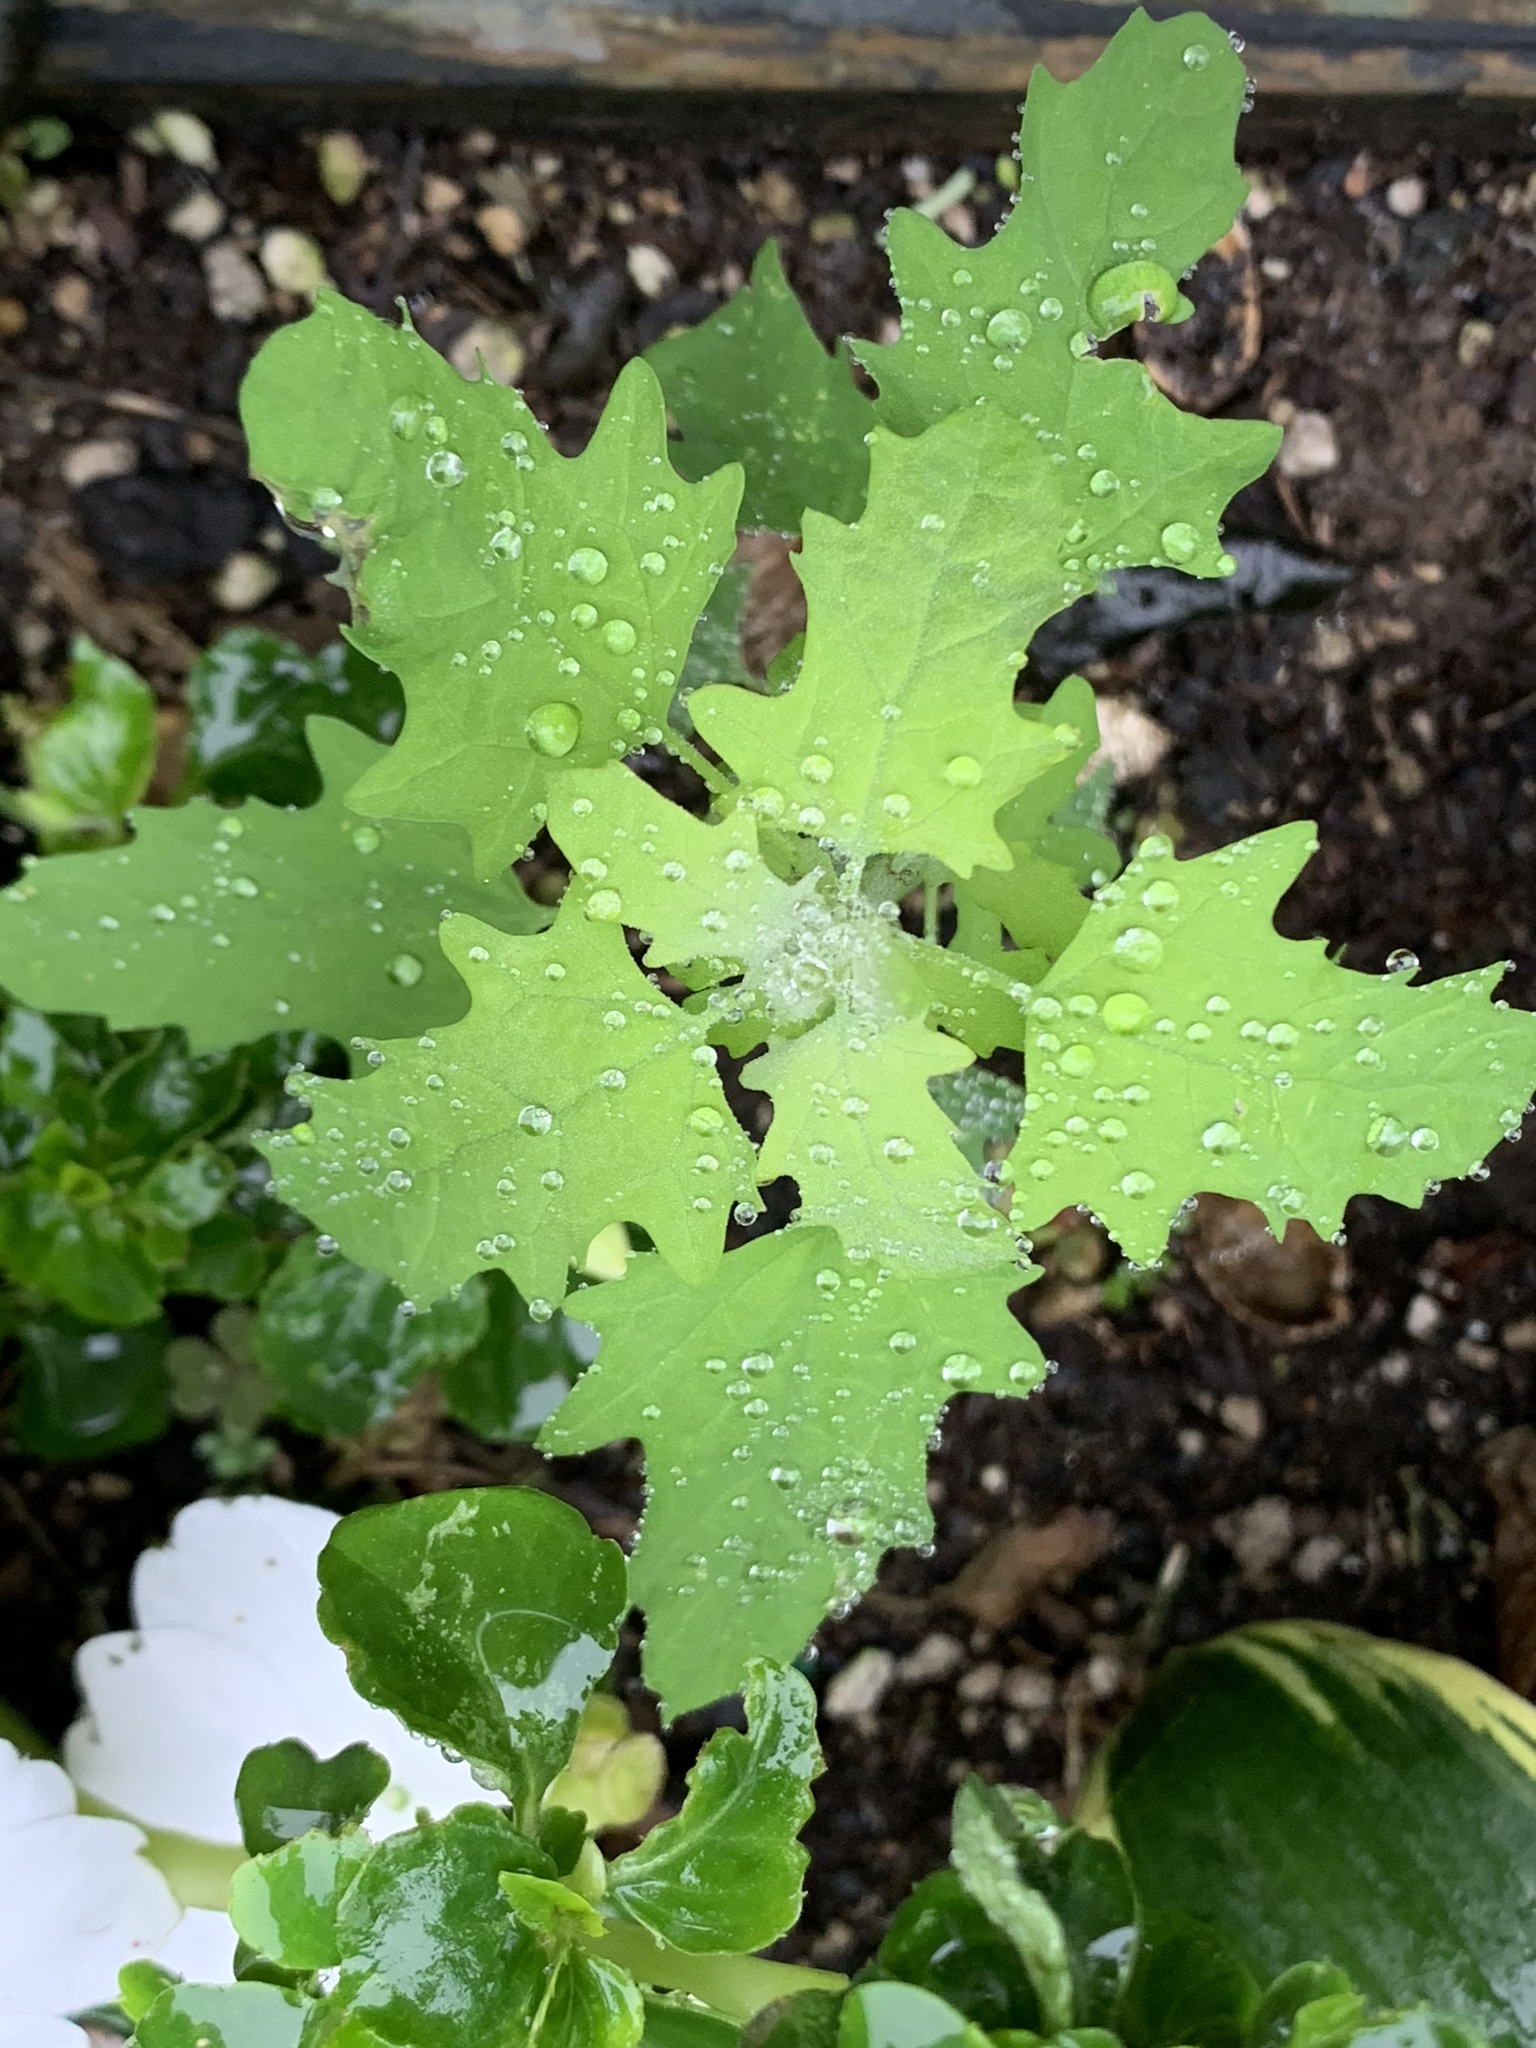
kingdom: Plantae
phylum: Tracheophyta
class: Magnoliopsida
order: Caryophyllales
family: Amaranthaceae
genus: Chenopodium
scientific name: Chenopodium album
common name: Fat-hen
